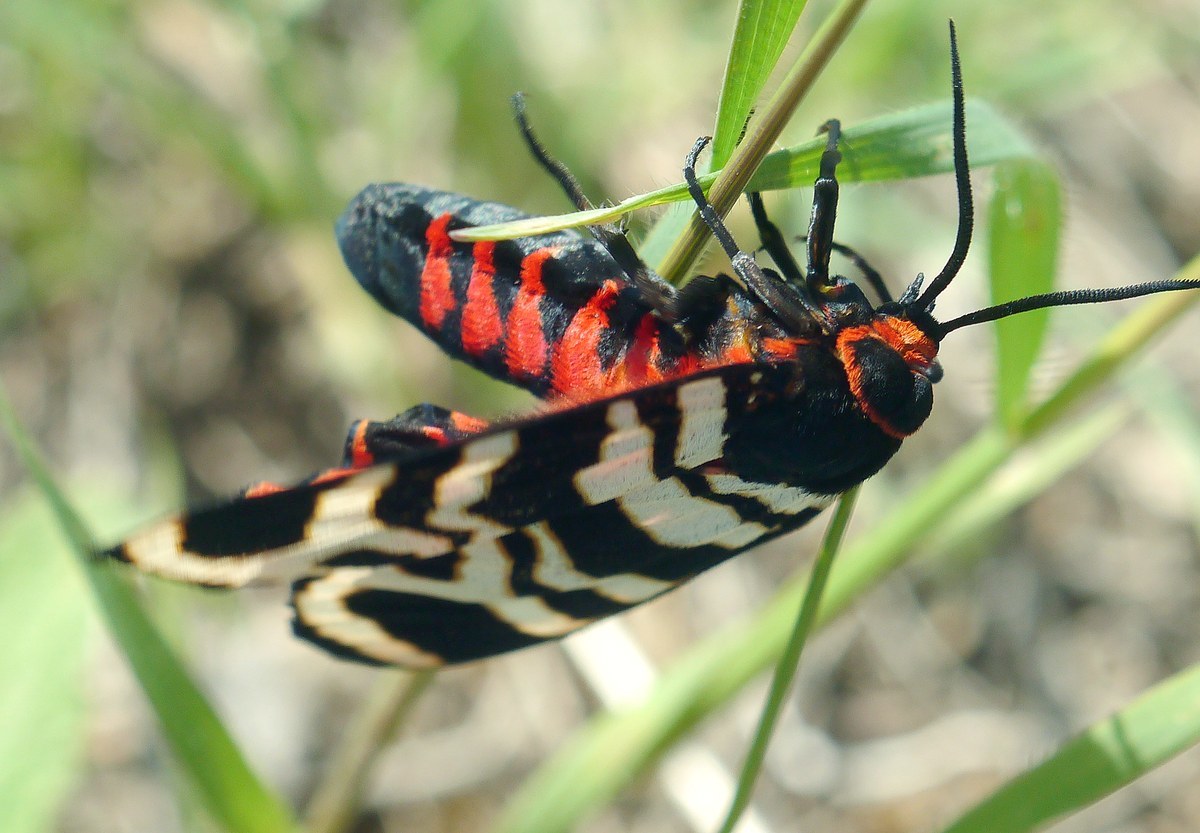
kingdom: Animalia
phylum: Arthropoda
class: Insecta
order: Lepidoptera
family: Erebidae
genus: Eucharia
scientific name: Eucharia festiva
